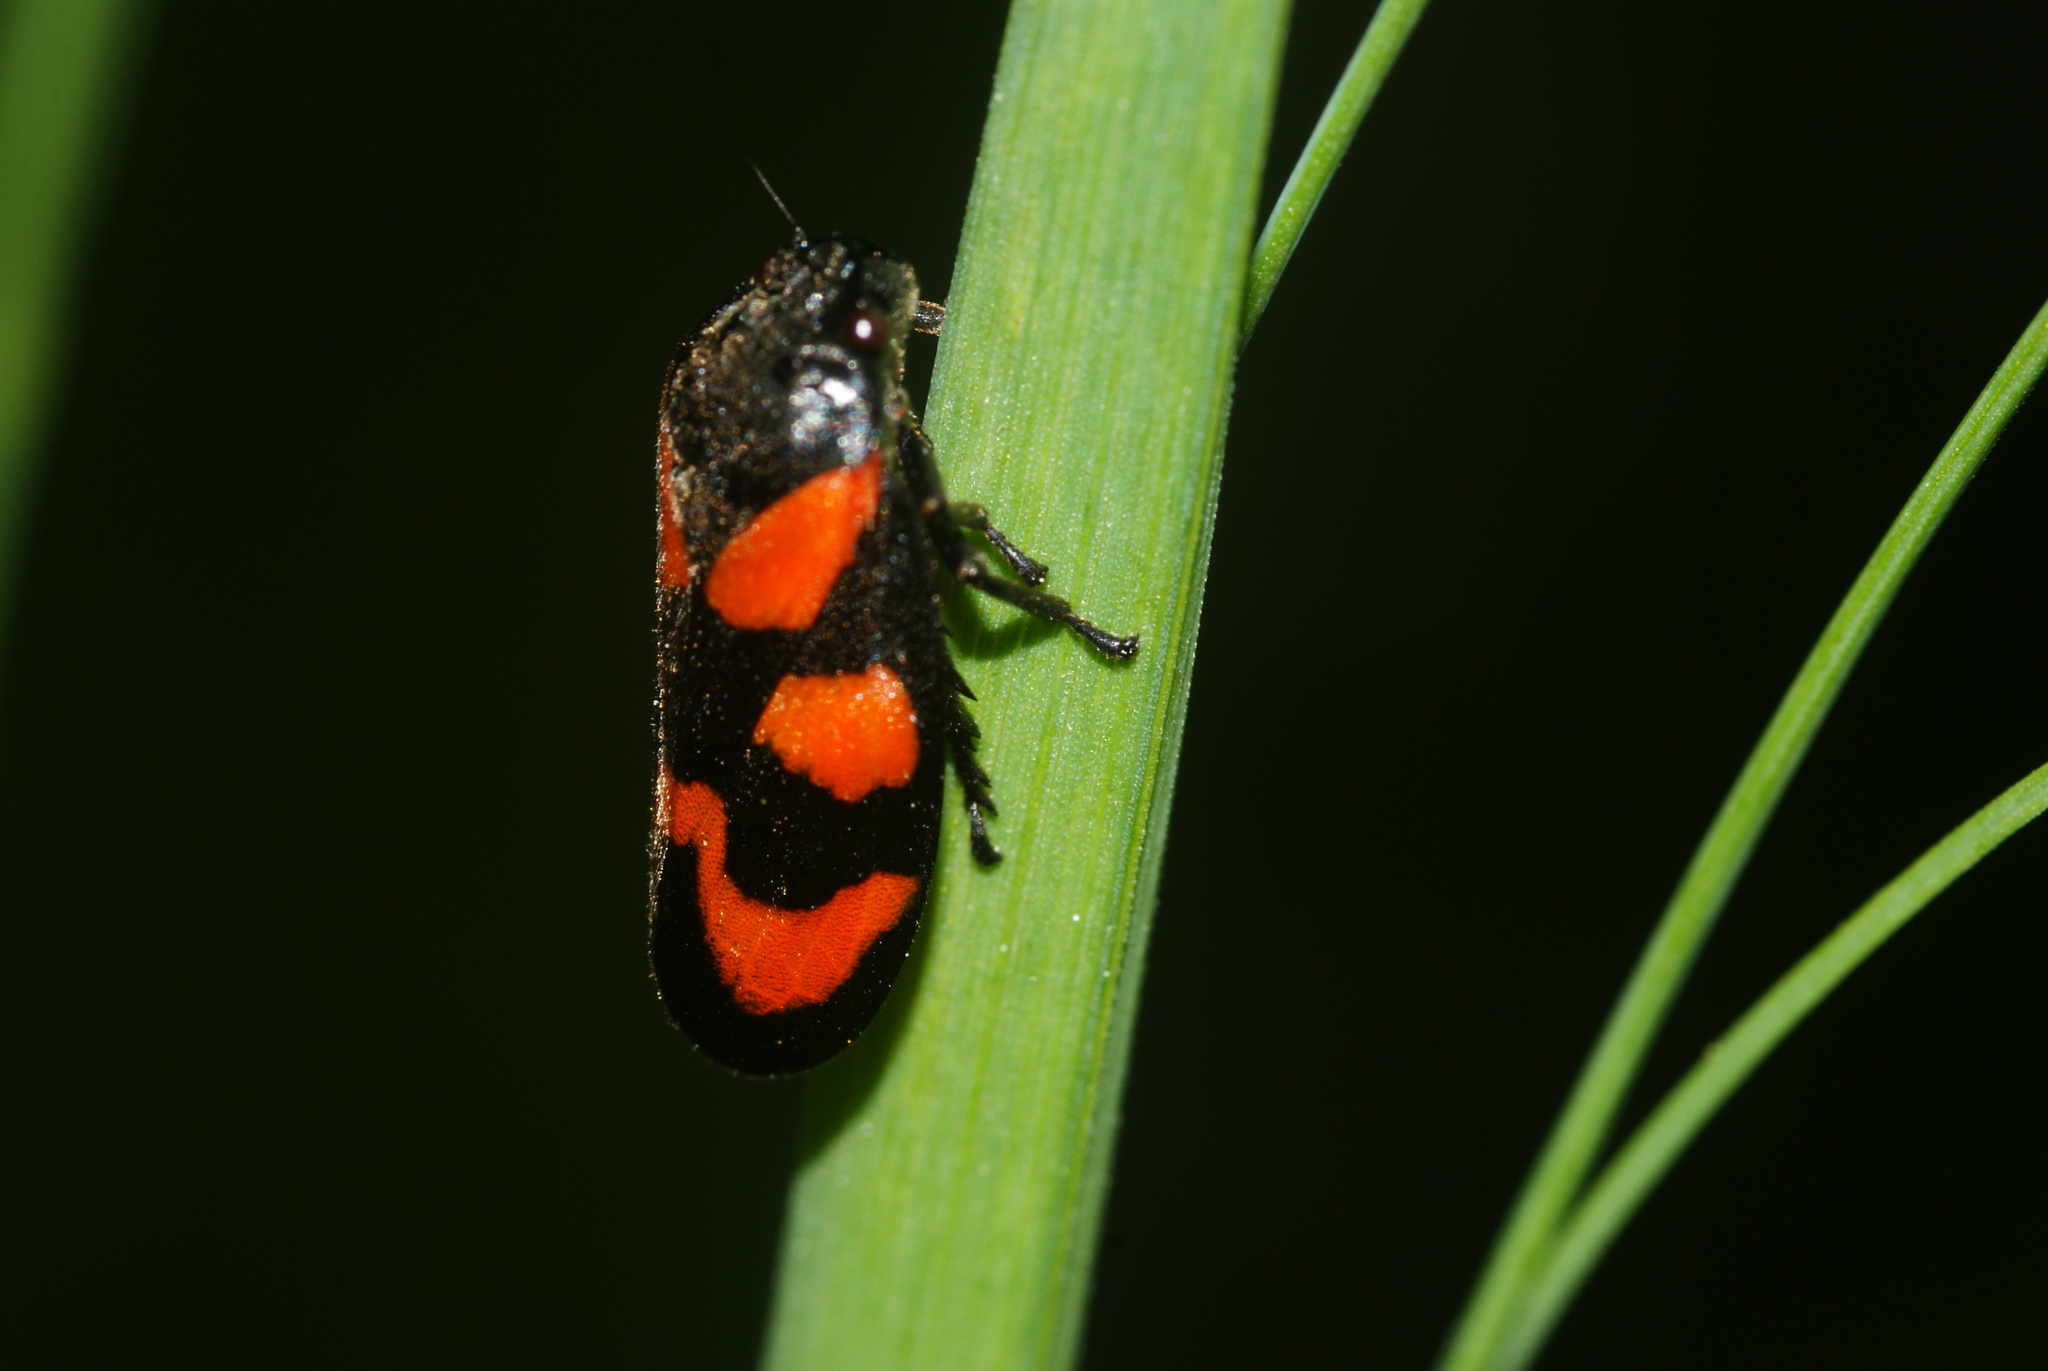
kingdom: Animalia
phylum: Arthropoda
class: Insecta
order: Hemiptera
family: Cercopidae
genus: Cercopis
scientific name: Cercopis vulnerata
